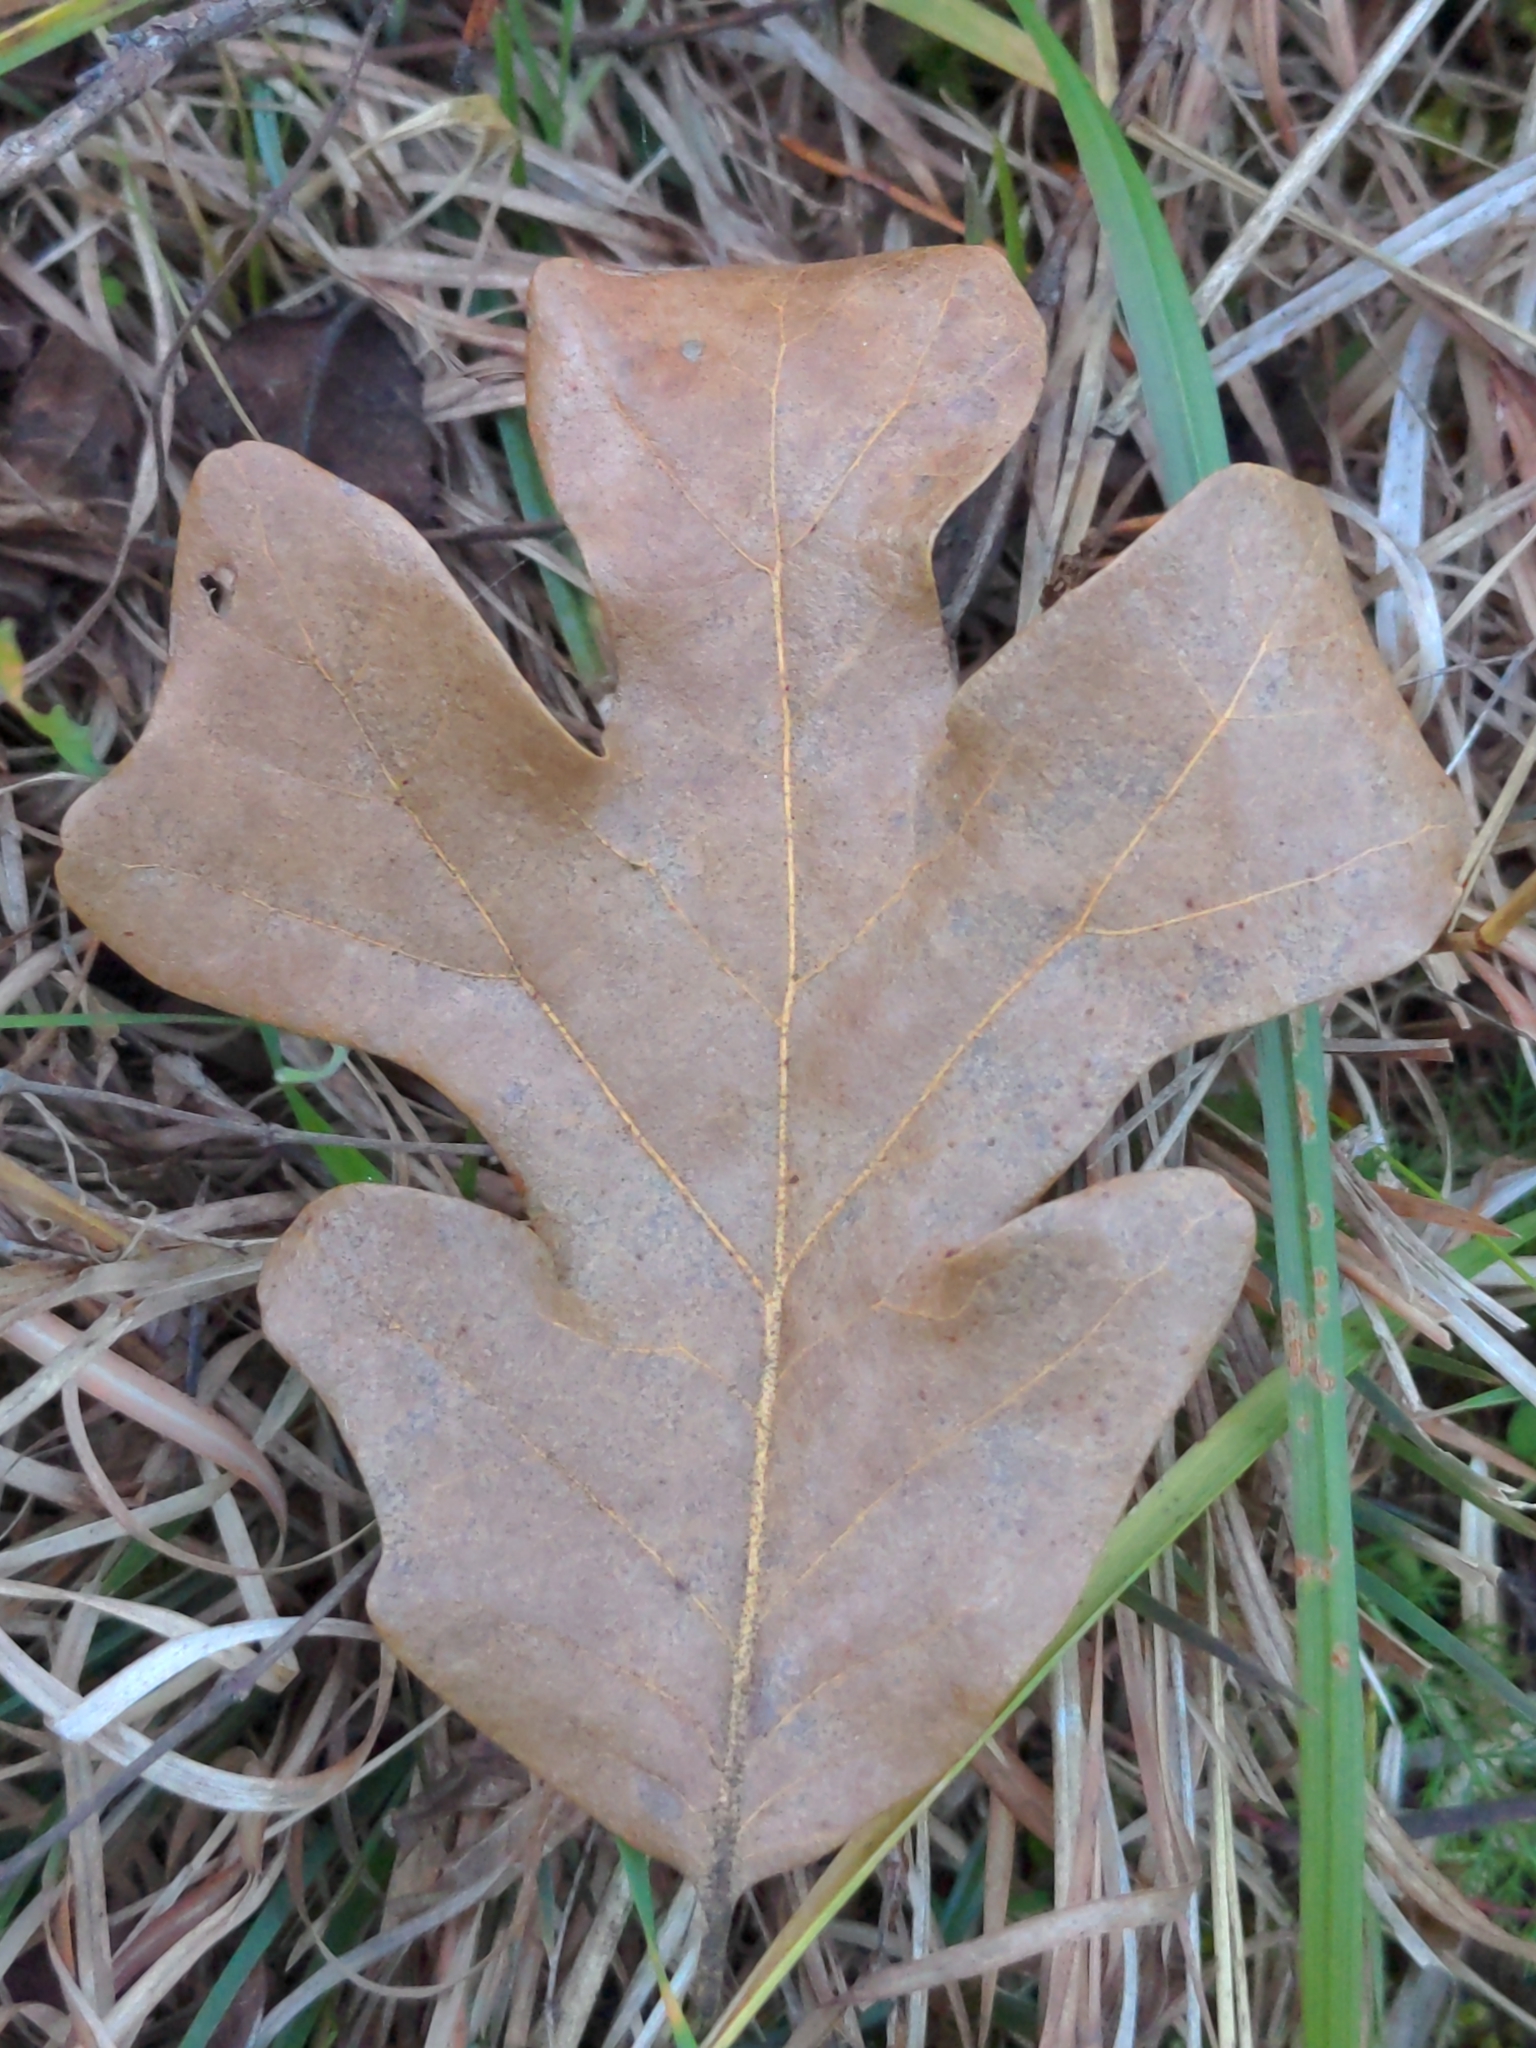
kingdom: Plantae
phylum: Tracheophyta
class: Magnoliopsida
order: Fagales
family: Fagaceae
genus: Quercus
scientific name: Quercus stellata
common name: Post oak
